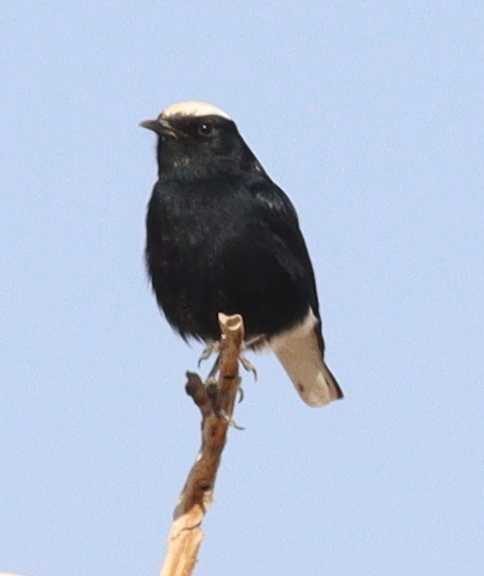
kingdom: Animalia
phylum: Chordata
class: Aves
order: Passeriformes
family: Muscicapidae
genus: Oenanthe
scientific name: Oenanthe leucopyga
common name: White-crowned wheatear
